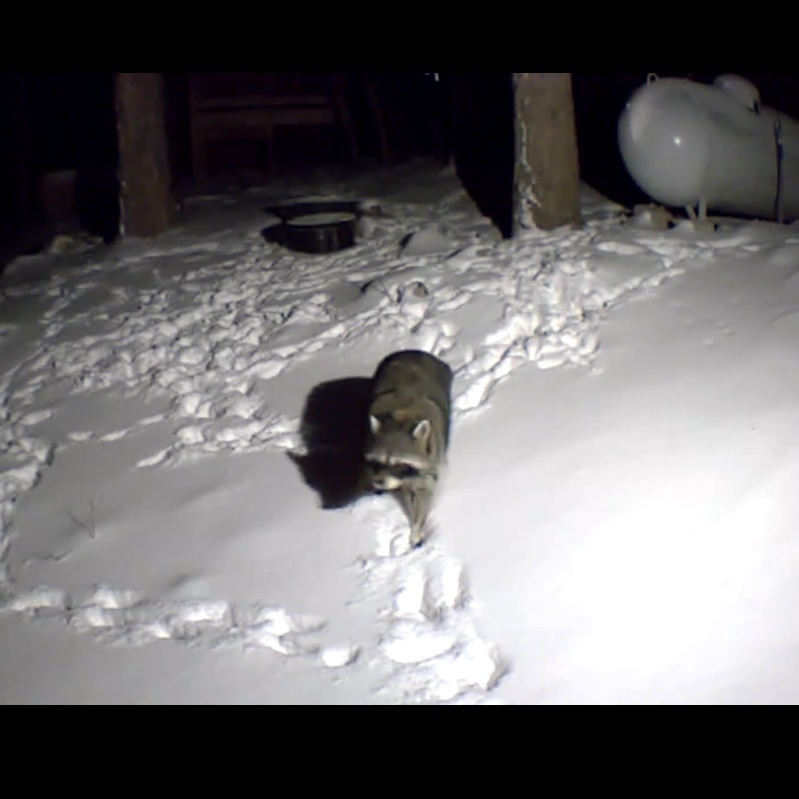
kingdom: Animalia
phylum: Chordata
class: Mammalia
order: Carnivora
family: Procyonidae
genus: Procyon
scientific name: Procyon lotor
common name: Raccoon
